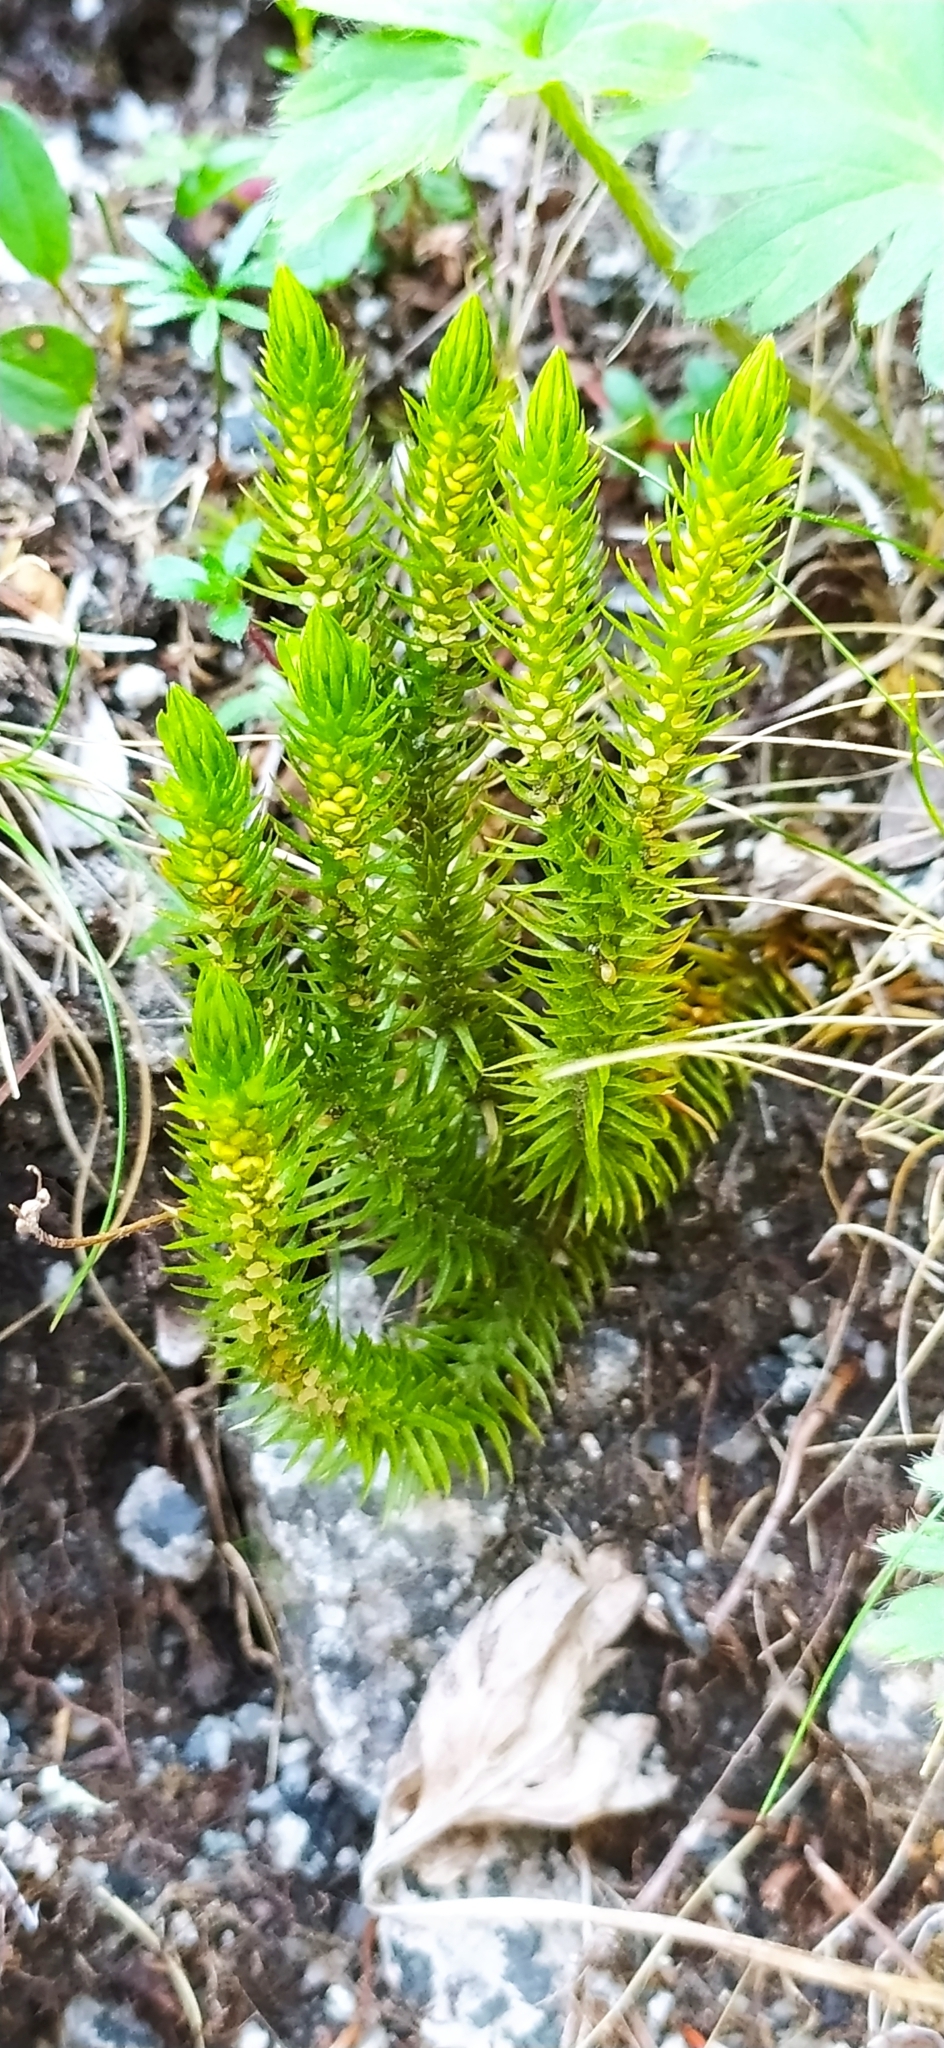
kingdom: Plantae
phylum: Tracheophyta
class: Lycopodiopsida
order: Lycopodiales
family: Lycopodiaceae
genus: Huperzia
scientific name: Huperzia selago
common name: Northern firmoss
